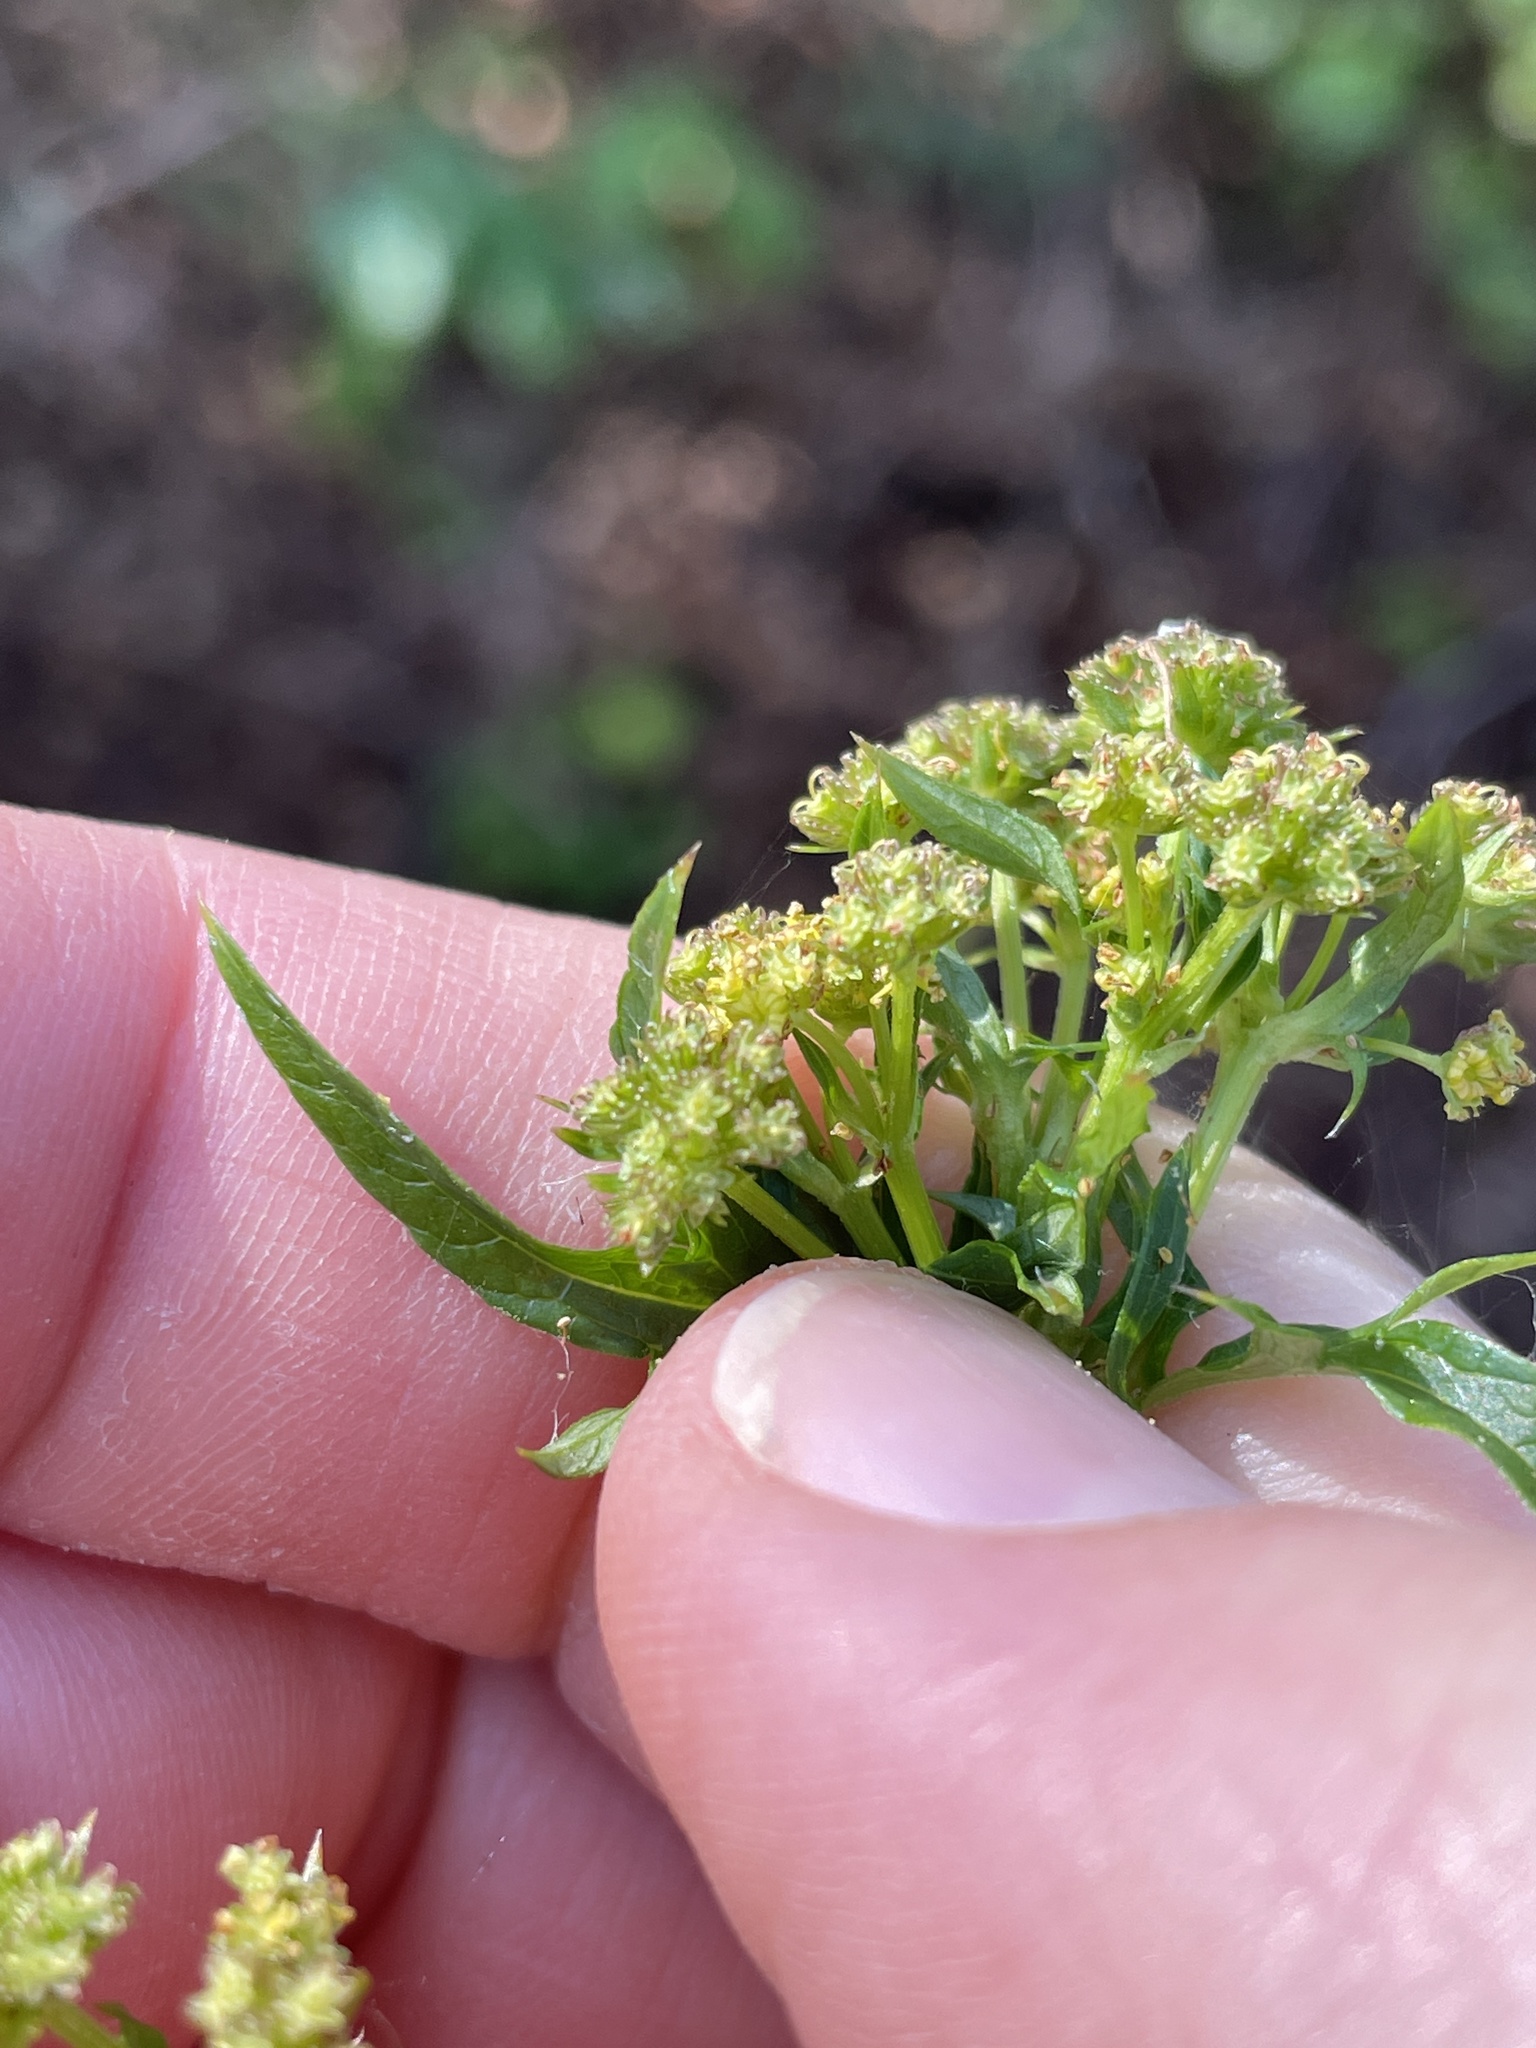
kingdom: Plantae
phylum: Tracheophyta
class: Magnoliopsida
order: Apiales
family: Apiaceae
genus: Sanicula
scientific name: Sanicula crassicaulis
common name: Western snakeroot
